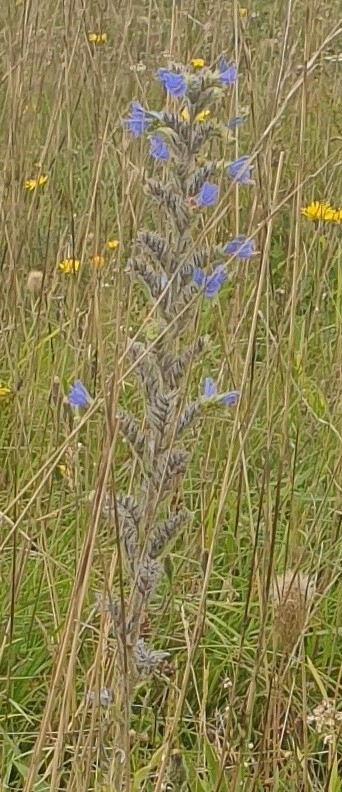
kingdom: Plantae
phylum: Tracheophyta
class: Magnoliopsida
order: Boraginales
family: Boraginaceae
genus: Echium
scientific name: Echium vulgare
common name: Common viper's bugloss
